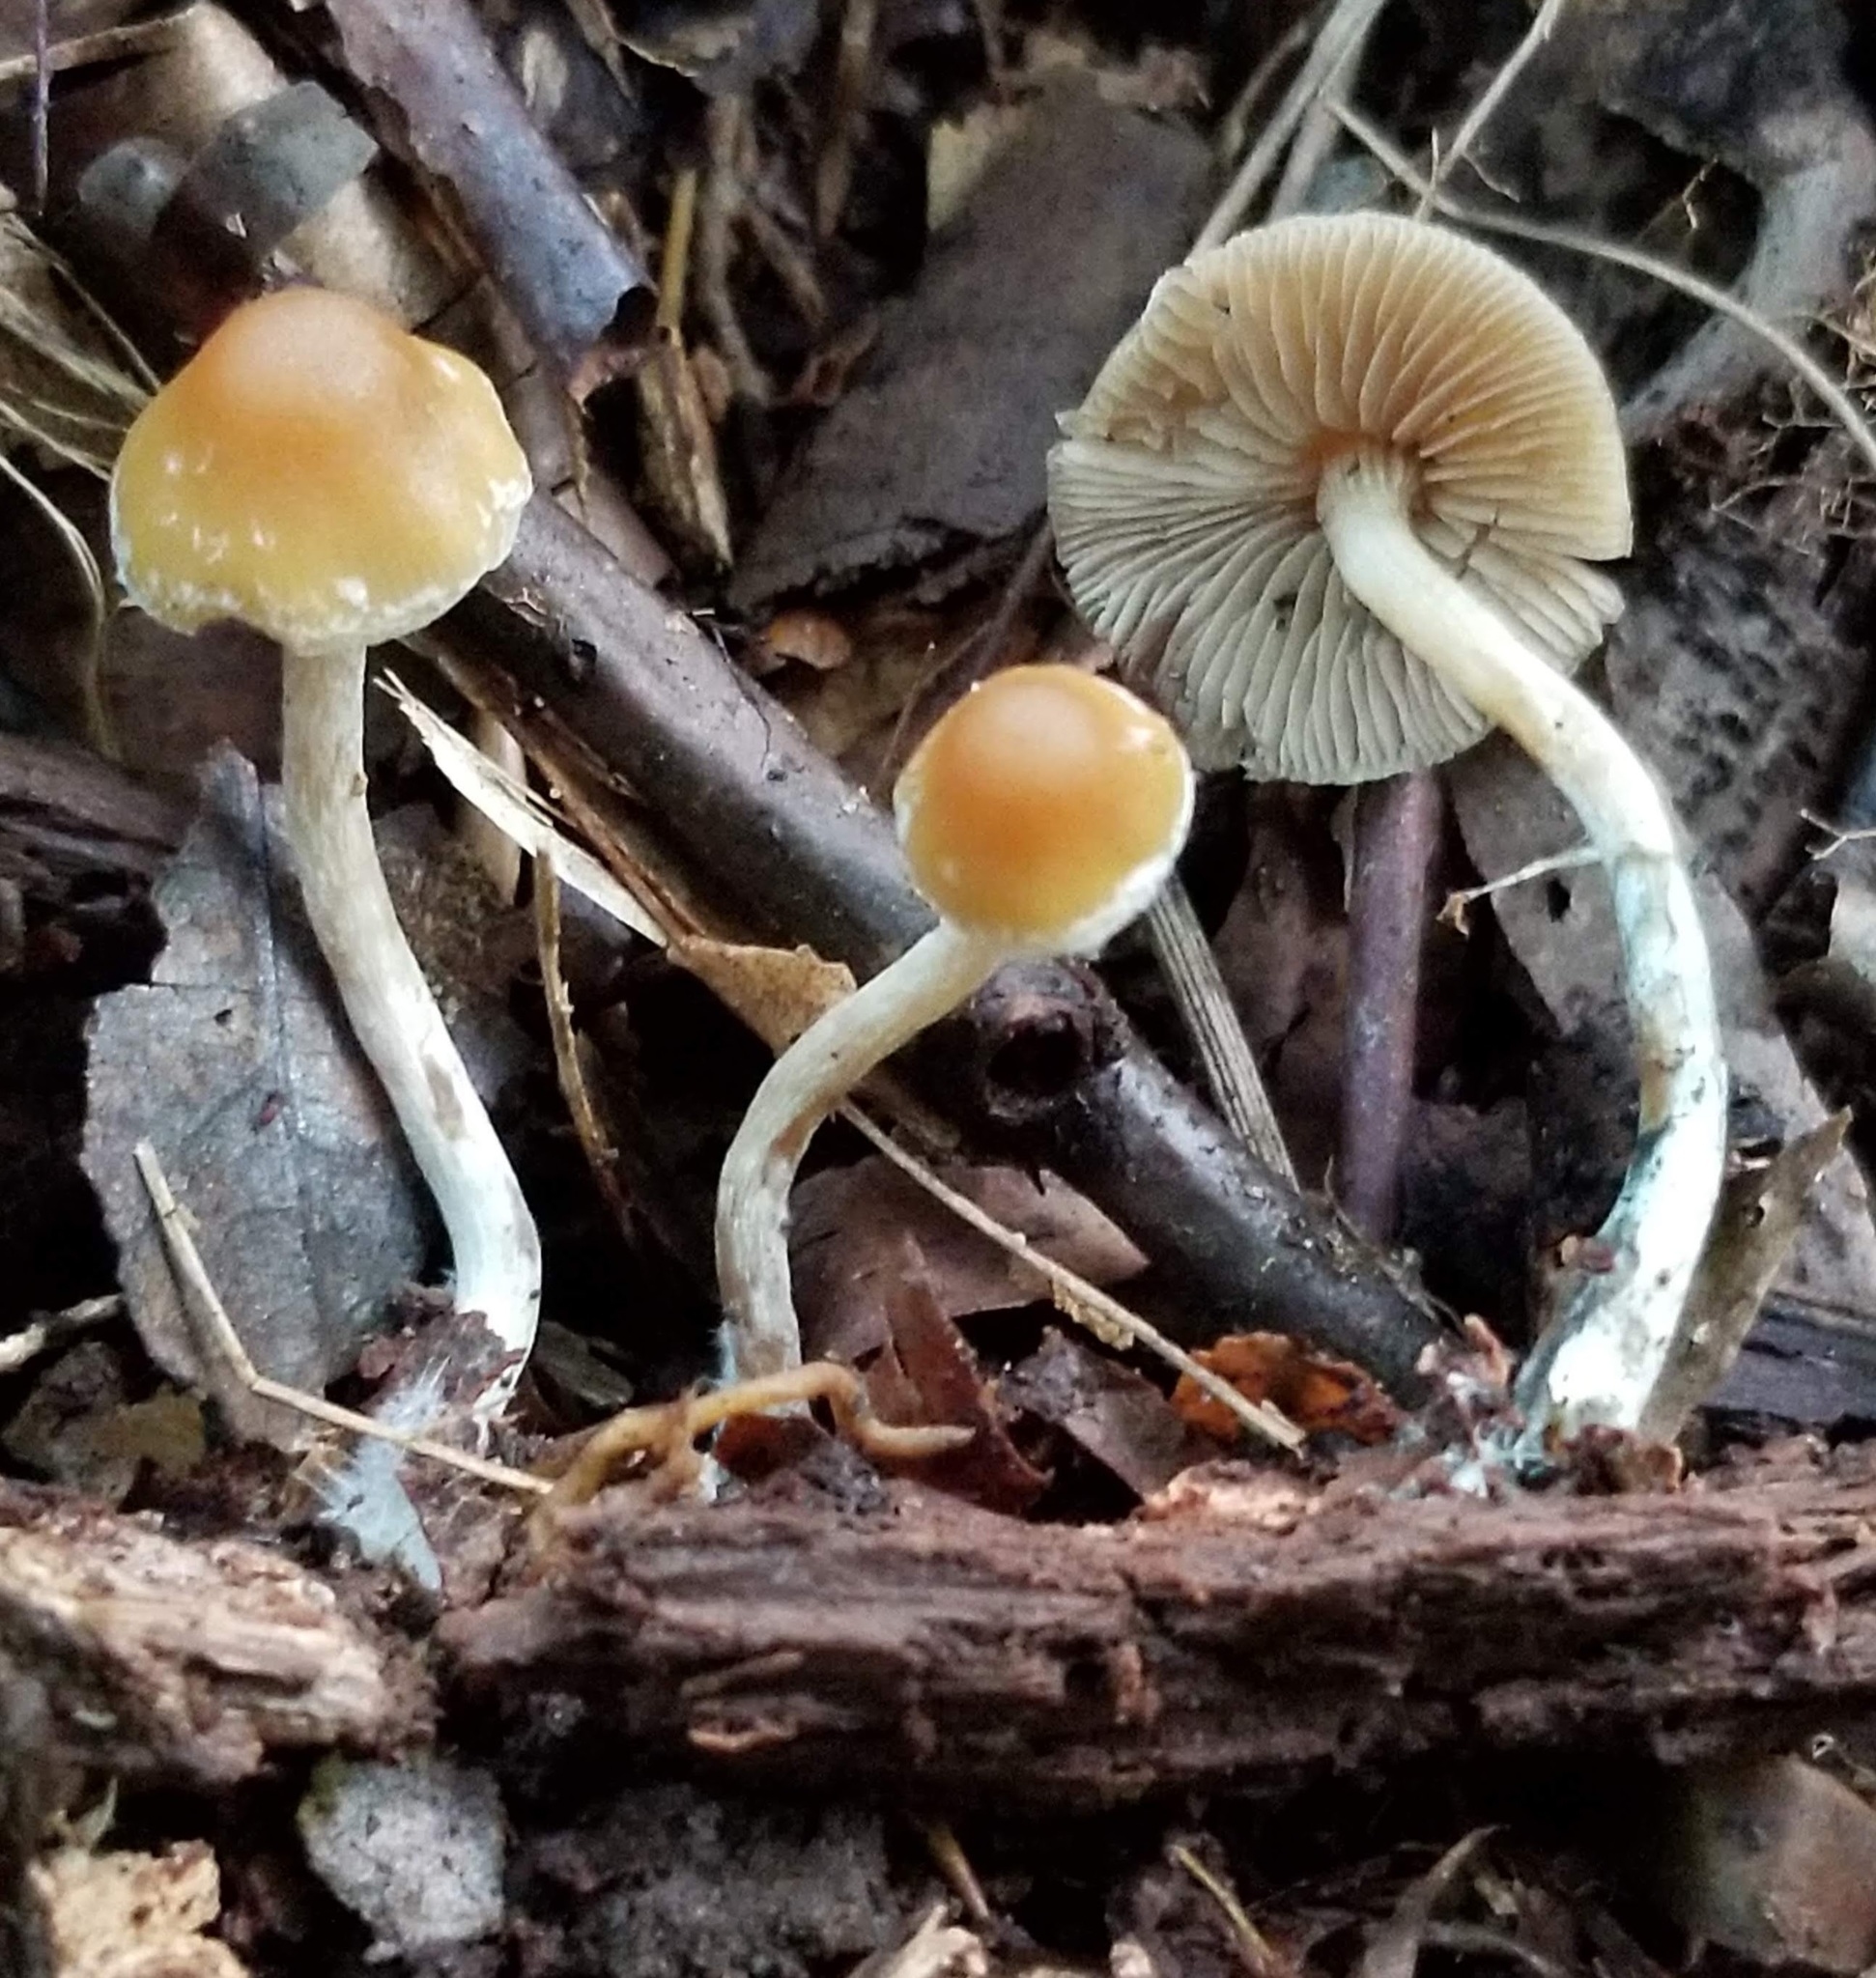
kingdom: Fungi
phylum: Basidiomycota
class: Agaricomycetes
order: Agaricales
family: Hymenogastraceae
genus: Psilocybe
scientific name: Psilocybe caerulipes
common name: Blue-foot
